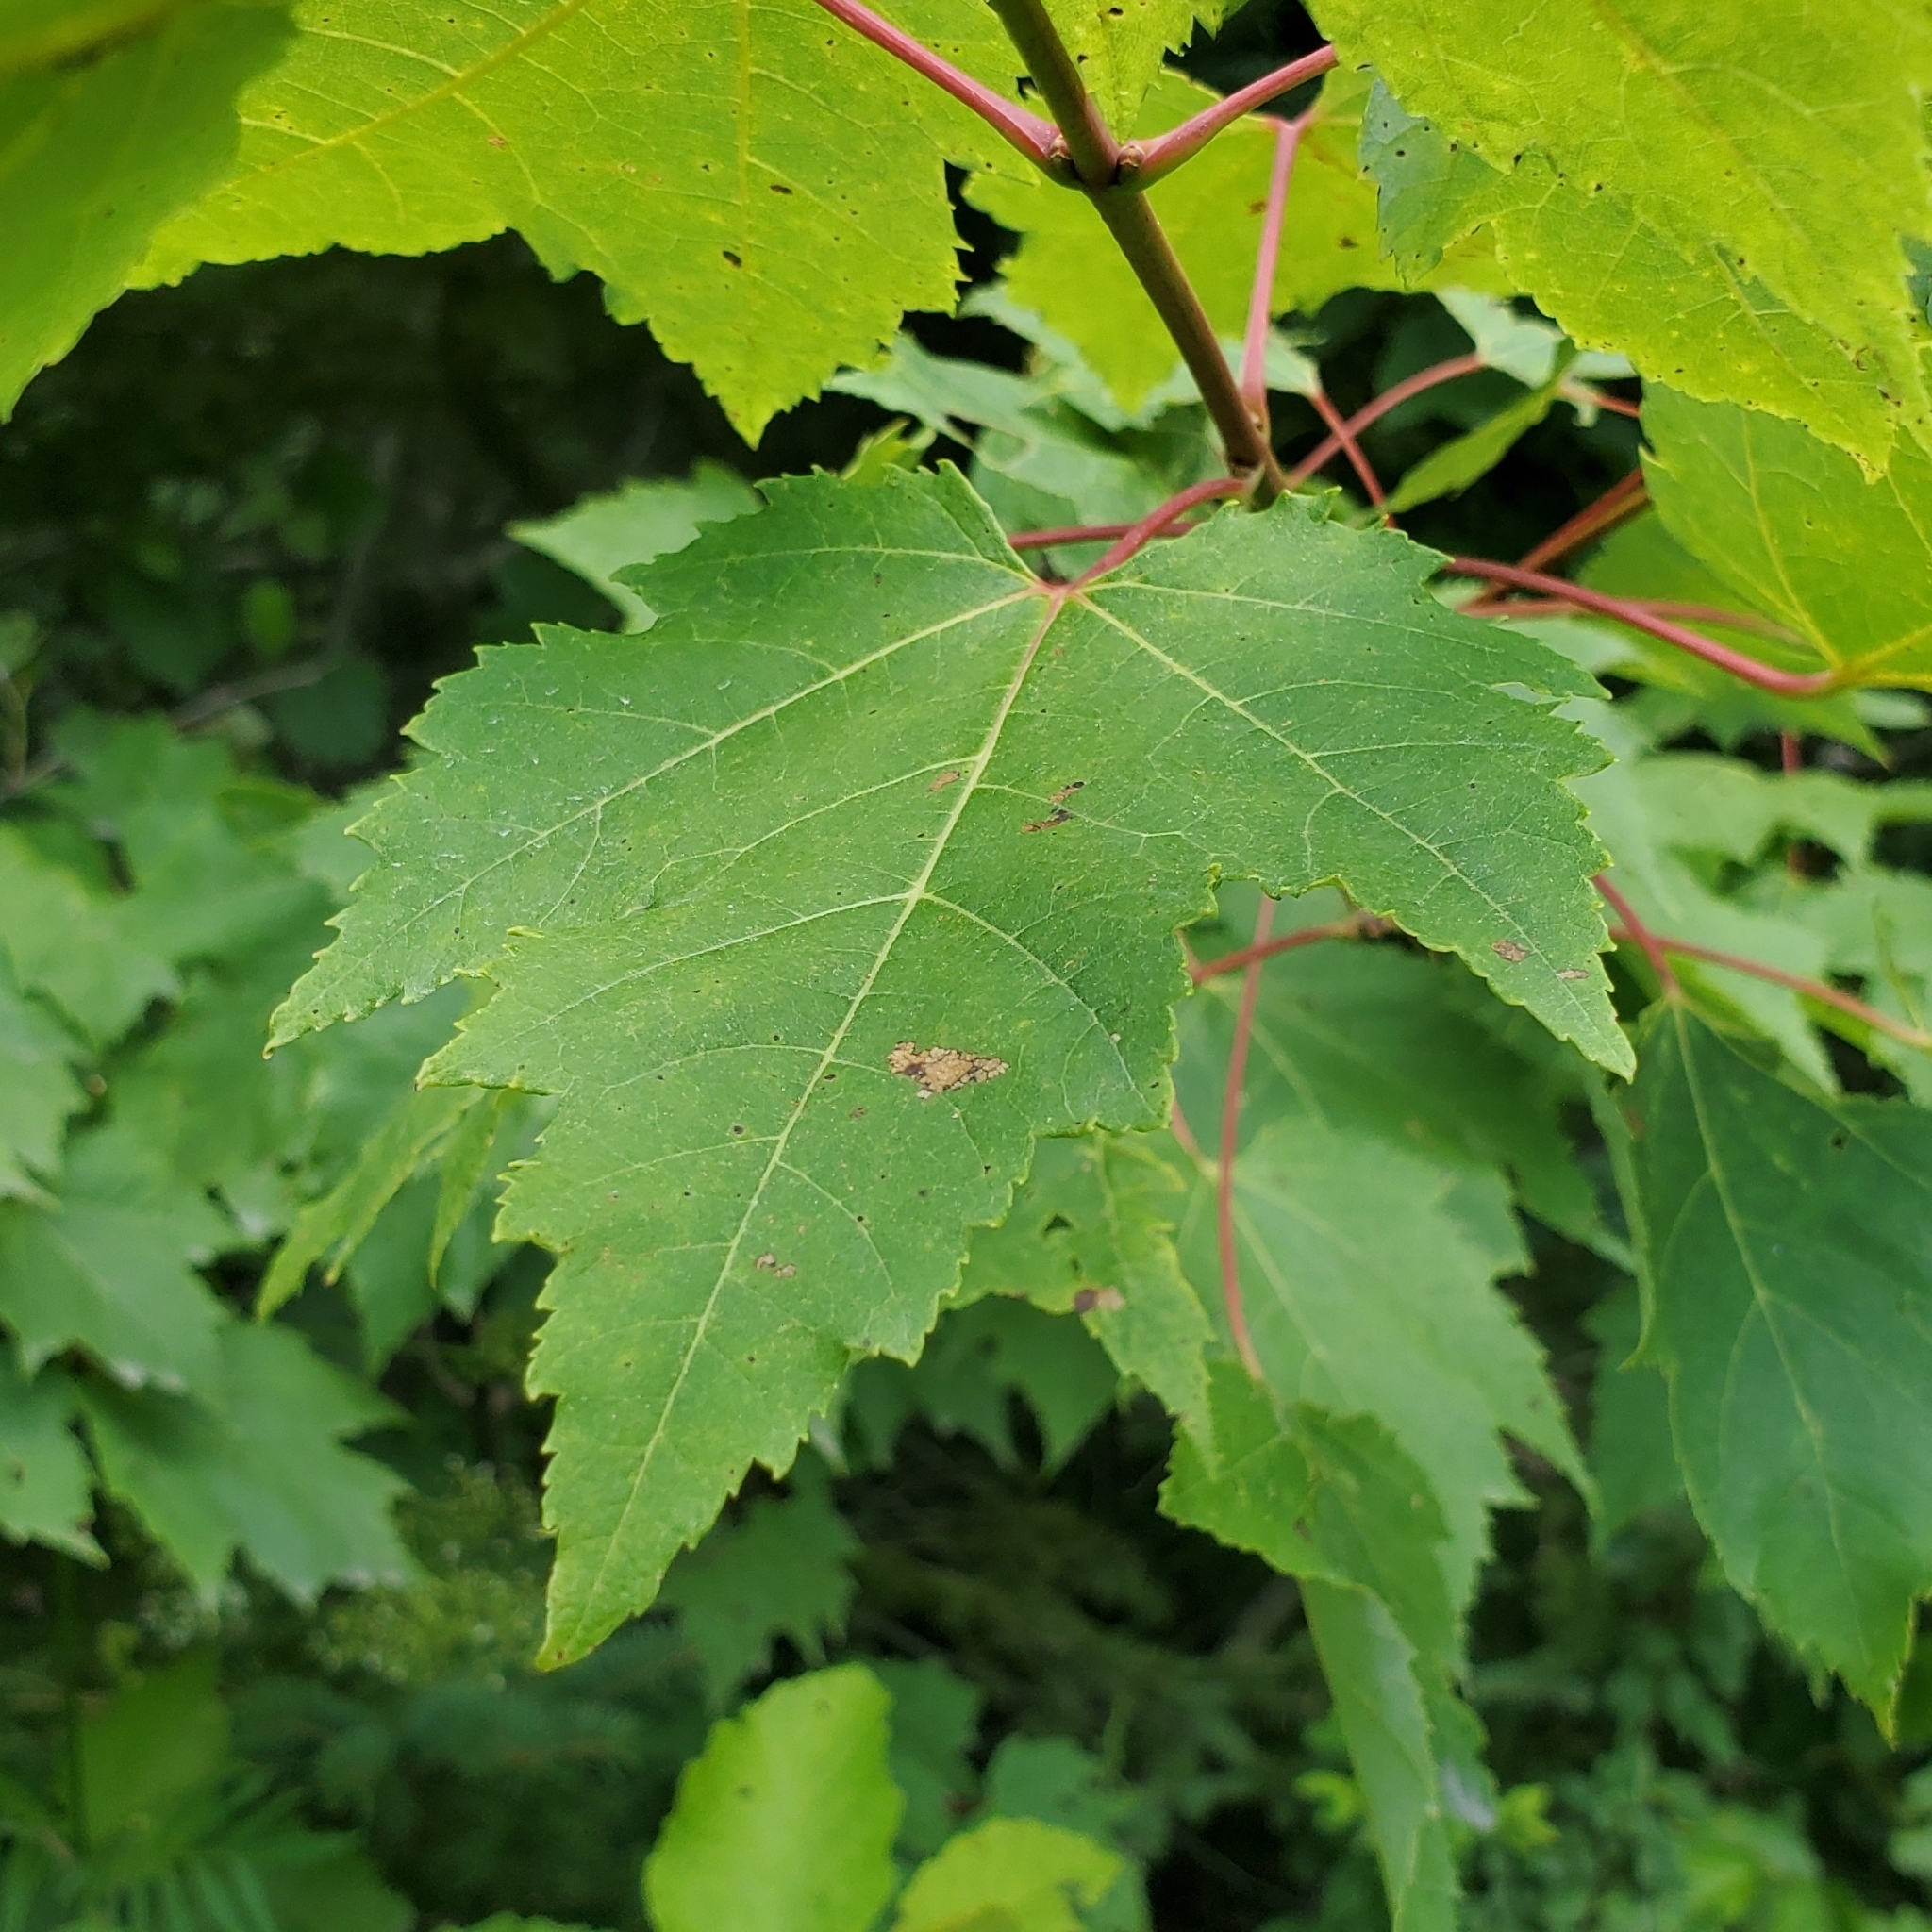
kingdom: Plantae
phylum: Tracheophyta
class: Magnoliopsida
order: Sapindales
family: Sapindaceae
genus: Acer
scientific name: Acer rubrum
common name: Red maple
